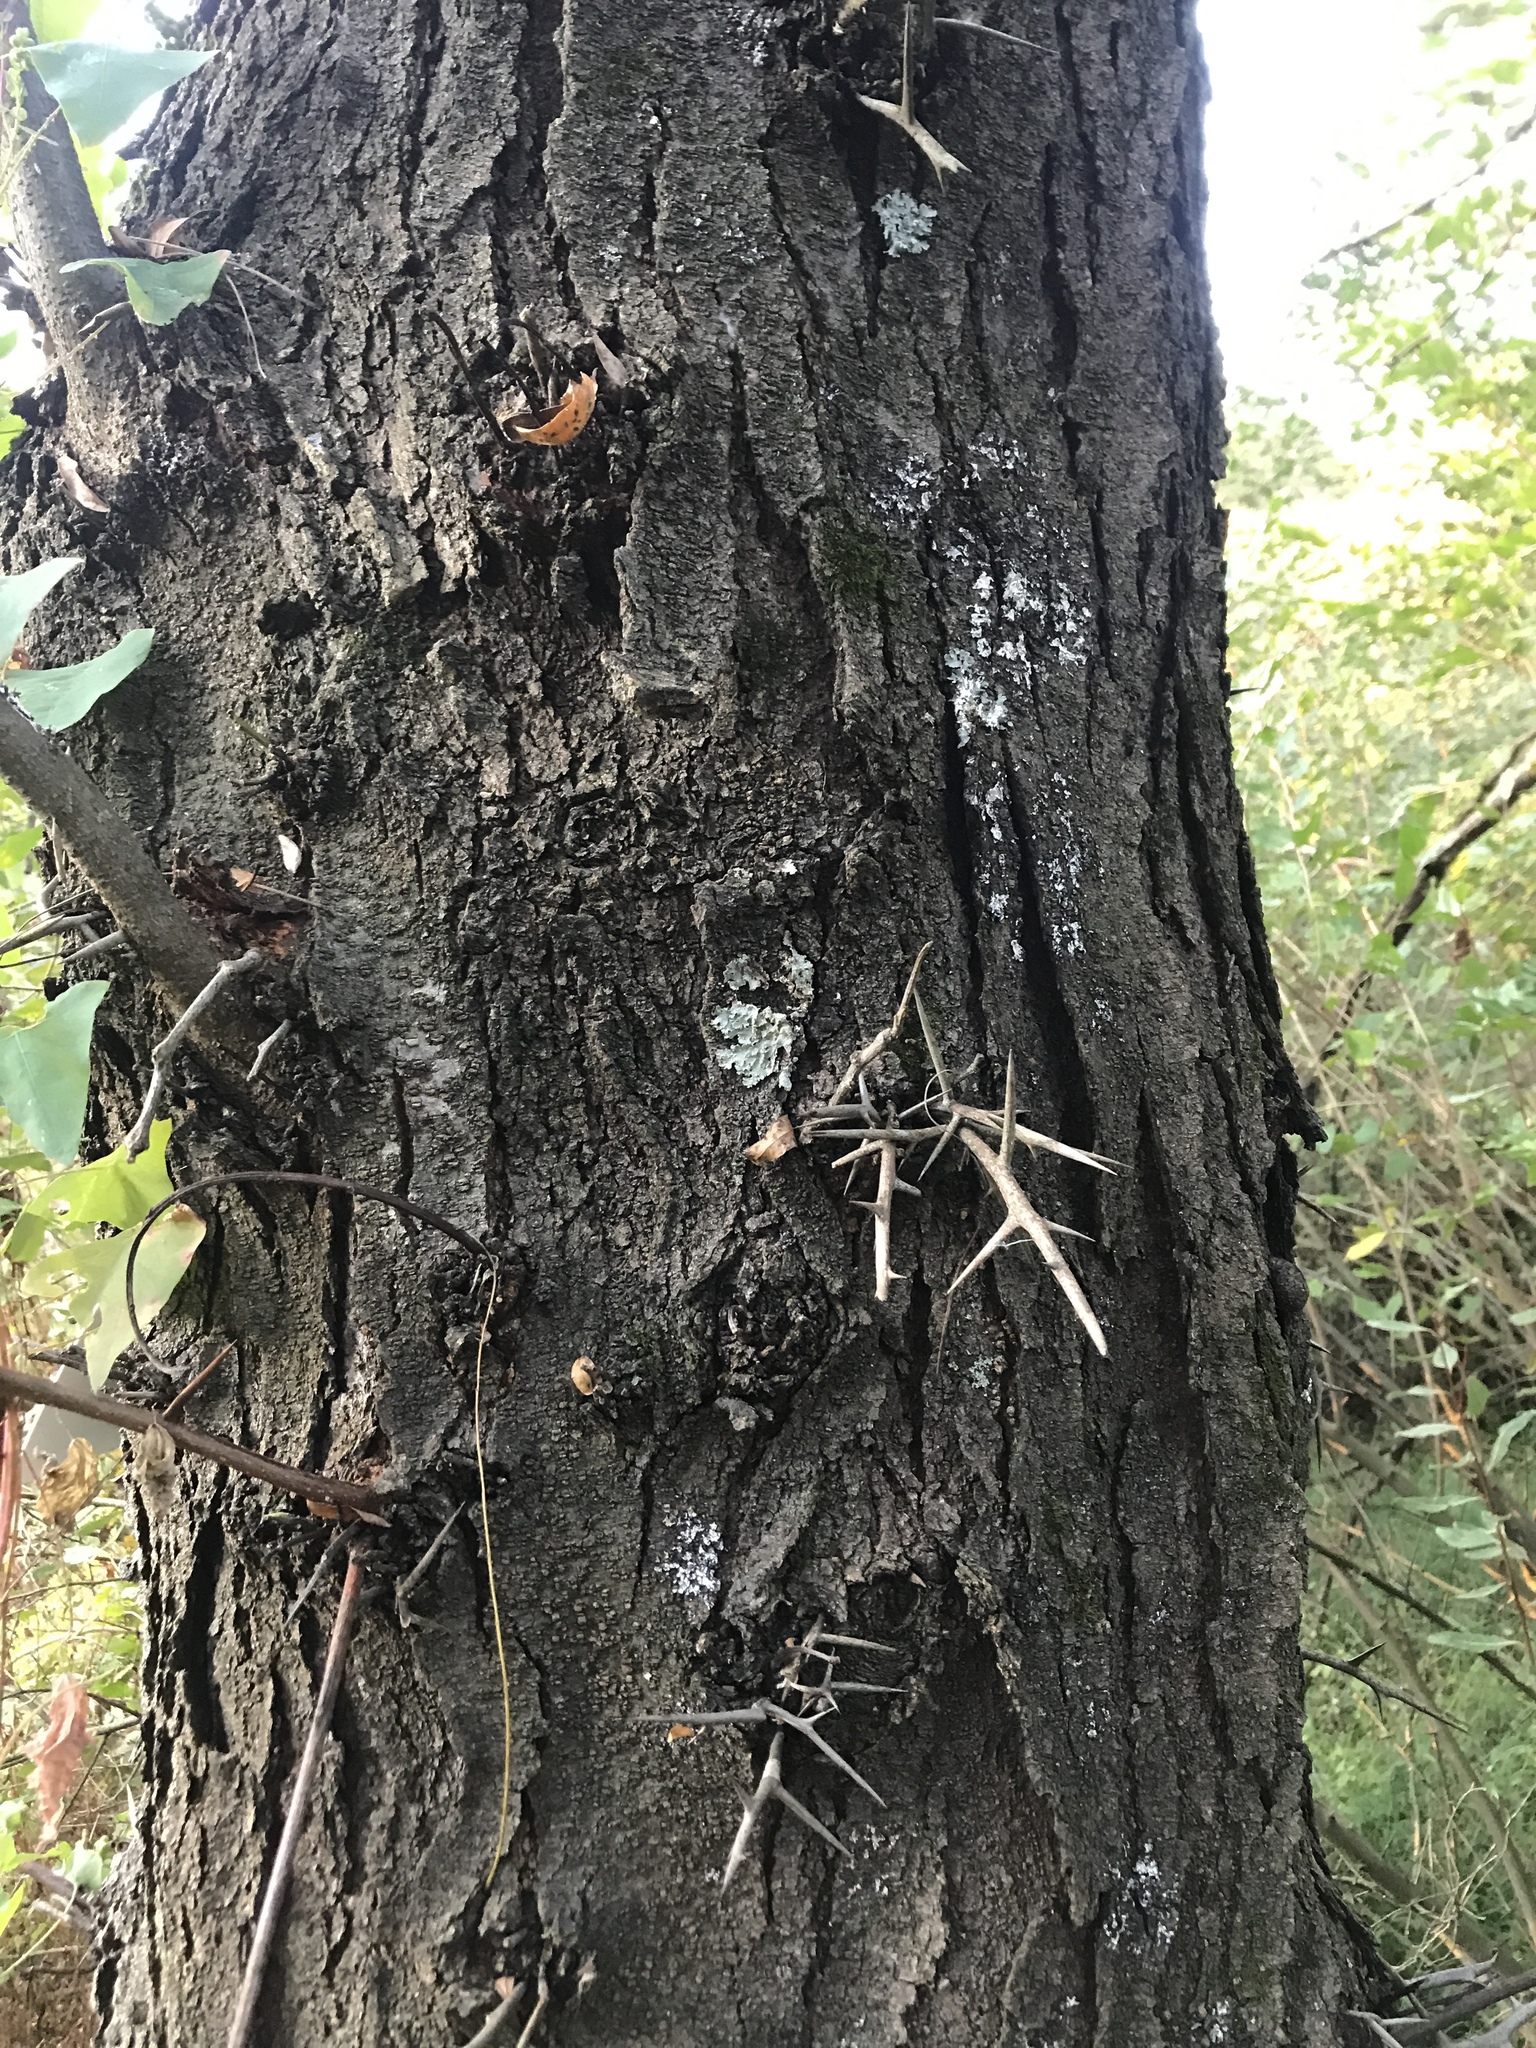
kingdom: Plantae
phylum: Tracheophyta
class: Magnoliopsida
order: Fabales
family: Fabaceae
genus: Gleditsia
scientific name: Gleditsia triacanthos
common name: Common honeylocust
